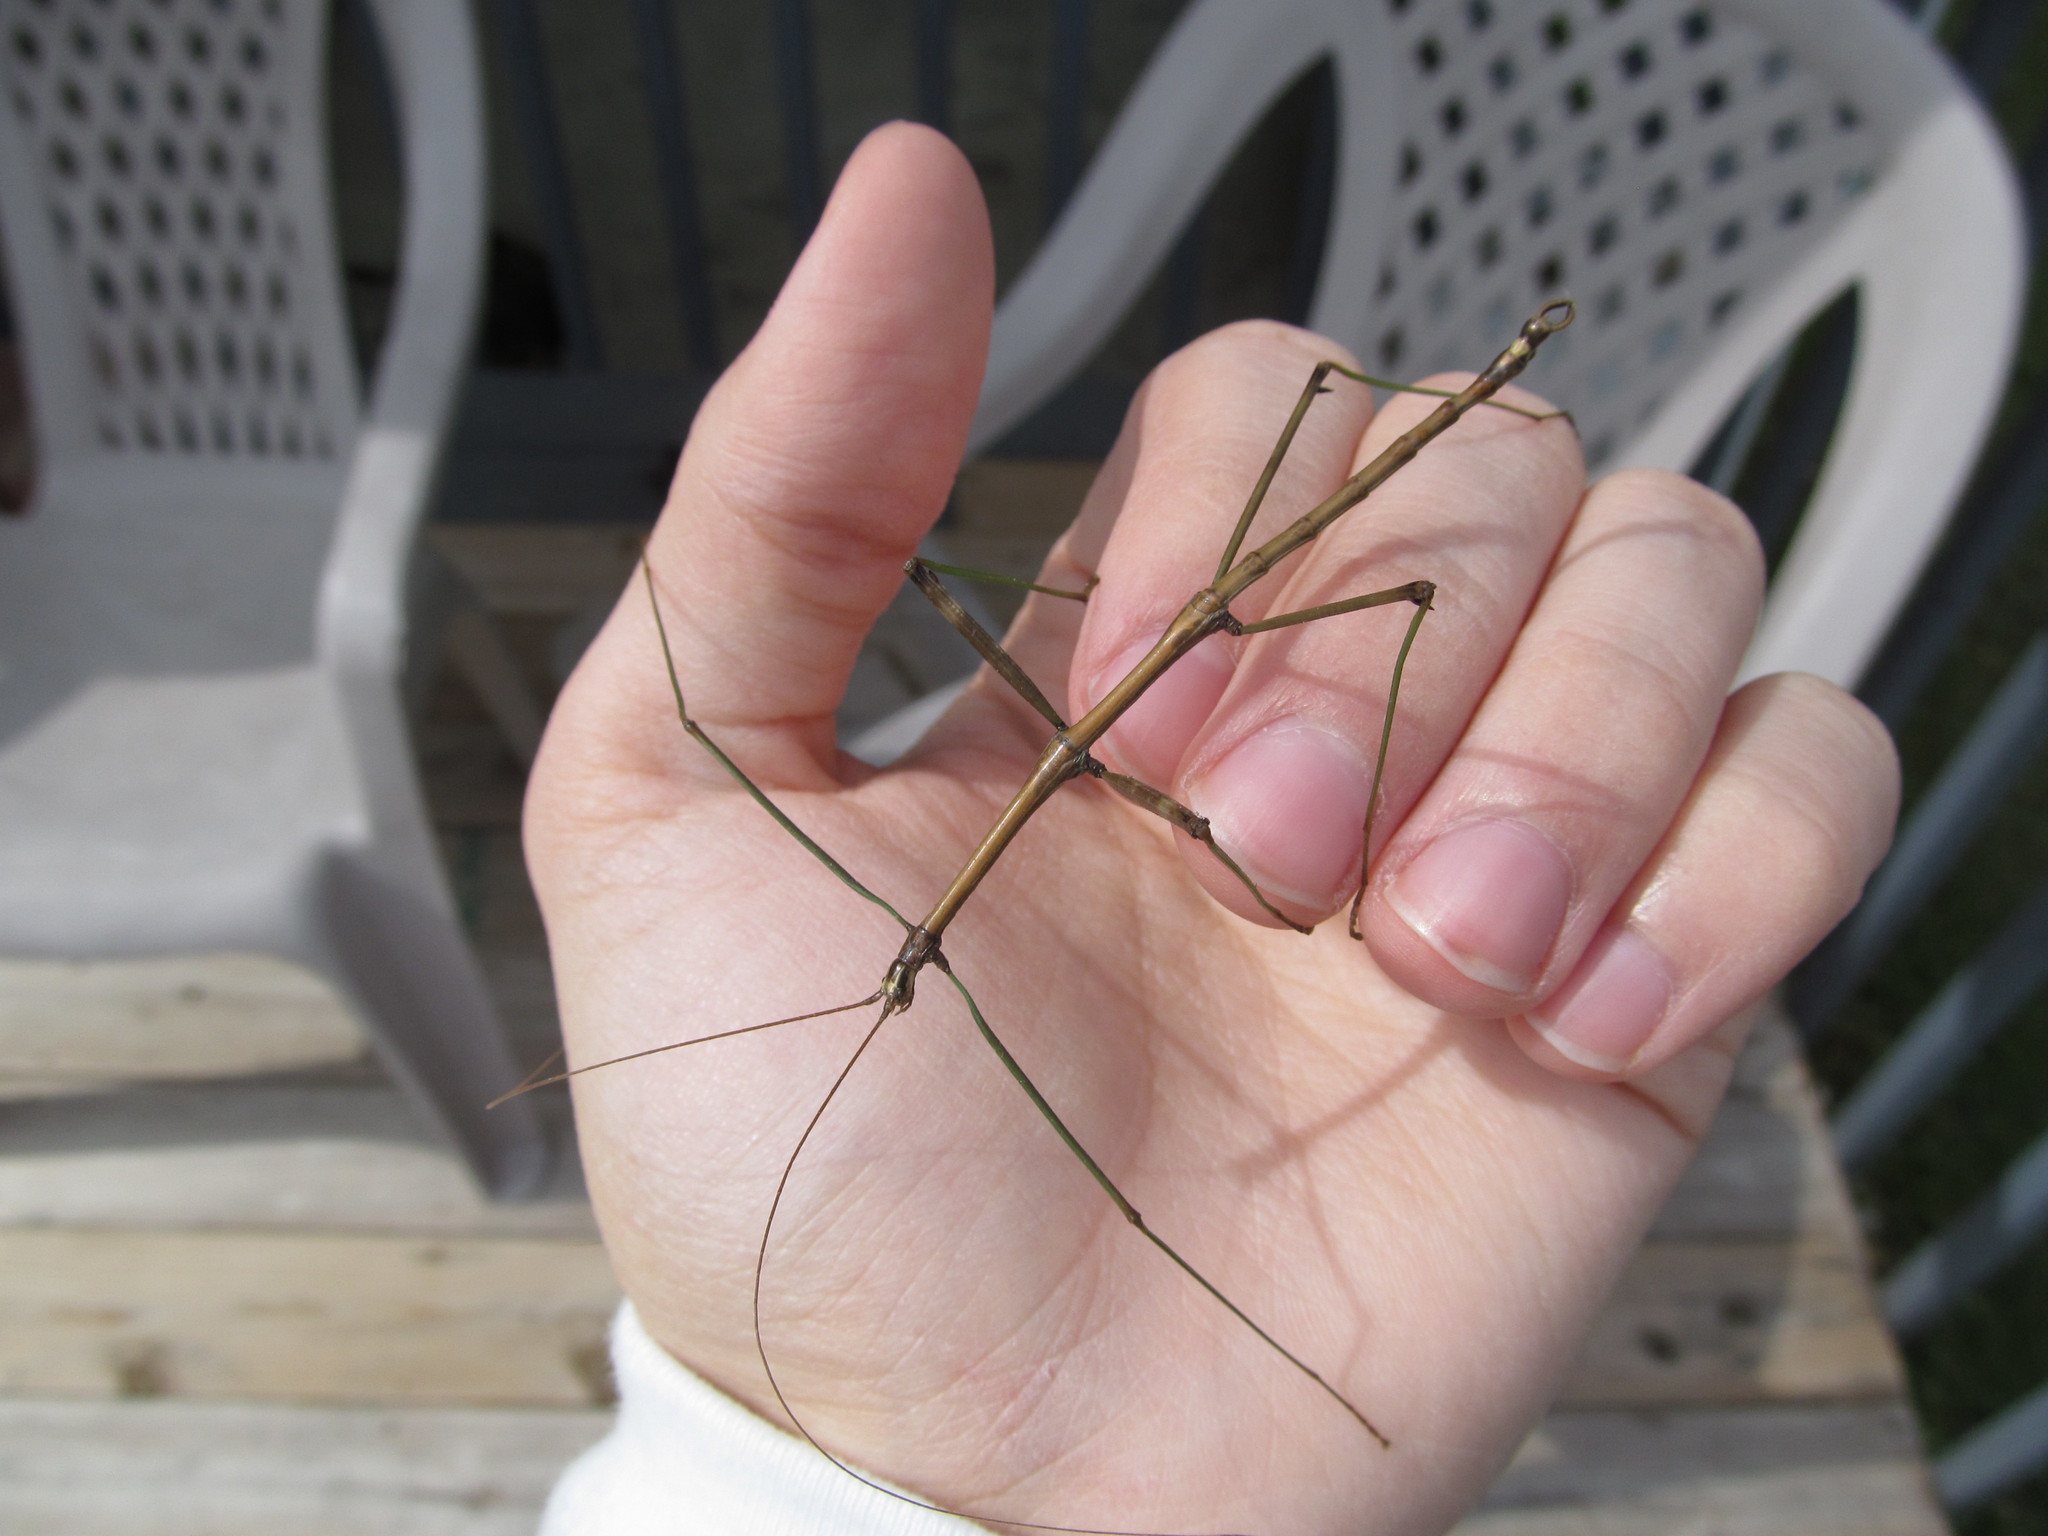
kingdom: Animalia
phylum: Arthropoda
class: Insecta
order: Phasmida
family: Diapheromeridae
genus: Diapheromera
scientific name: Diapheromera femorata
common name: Common american walkingstick
